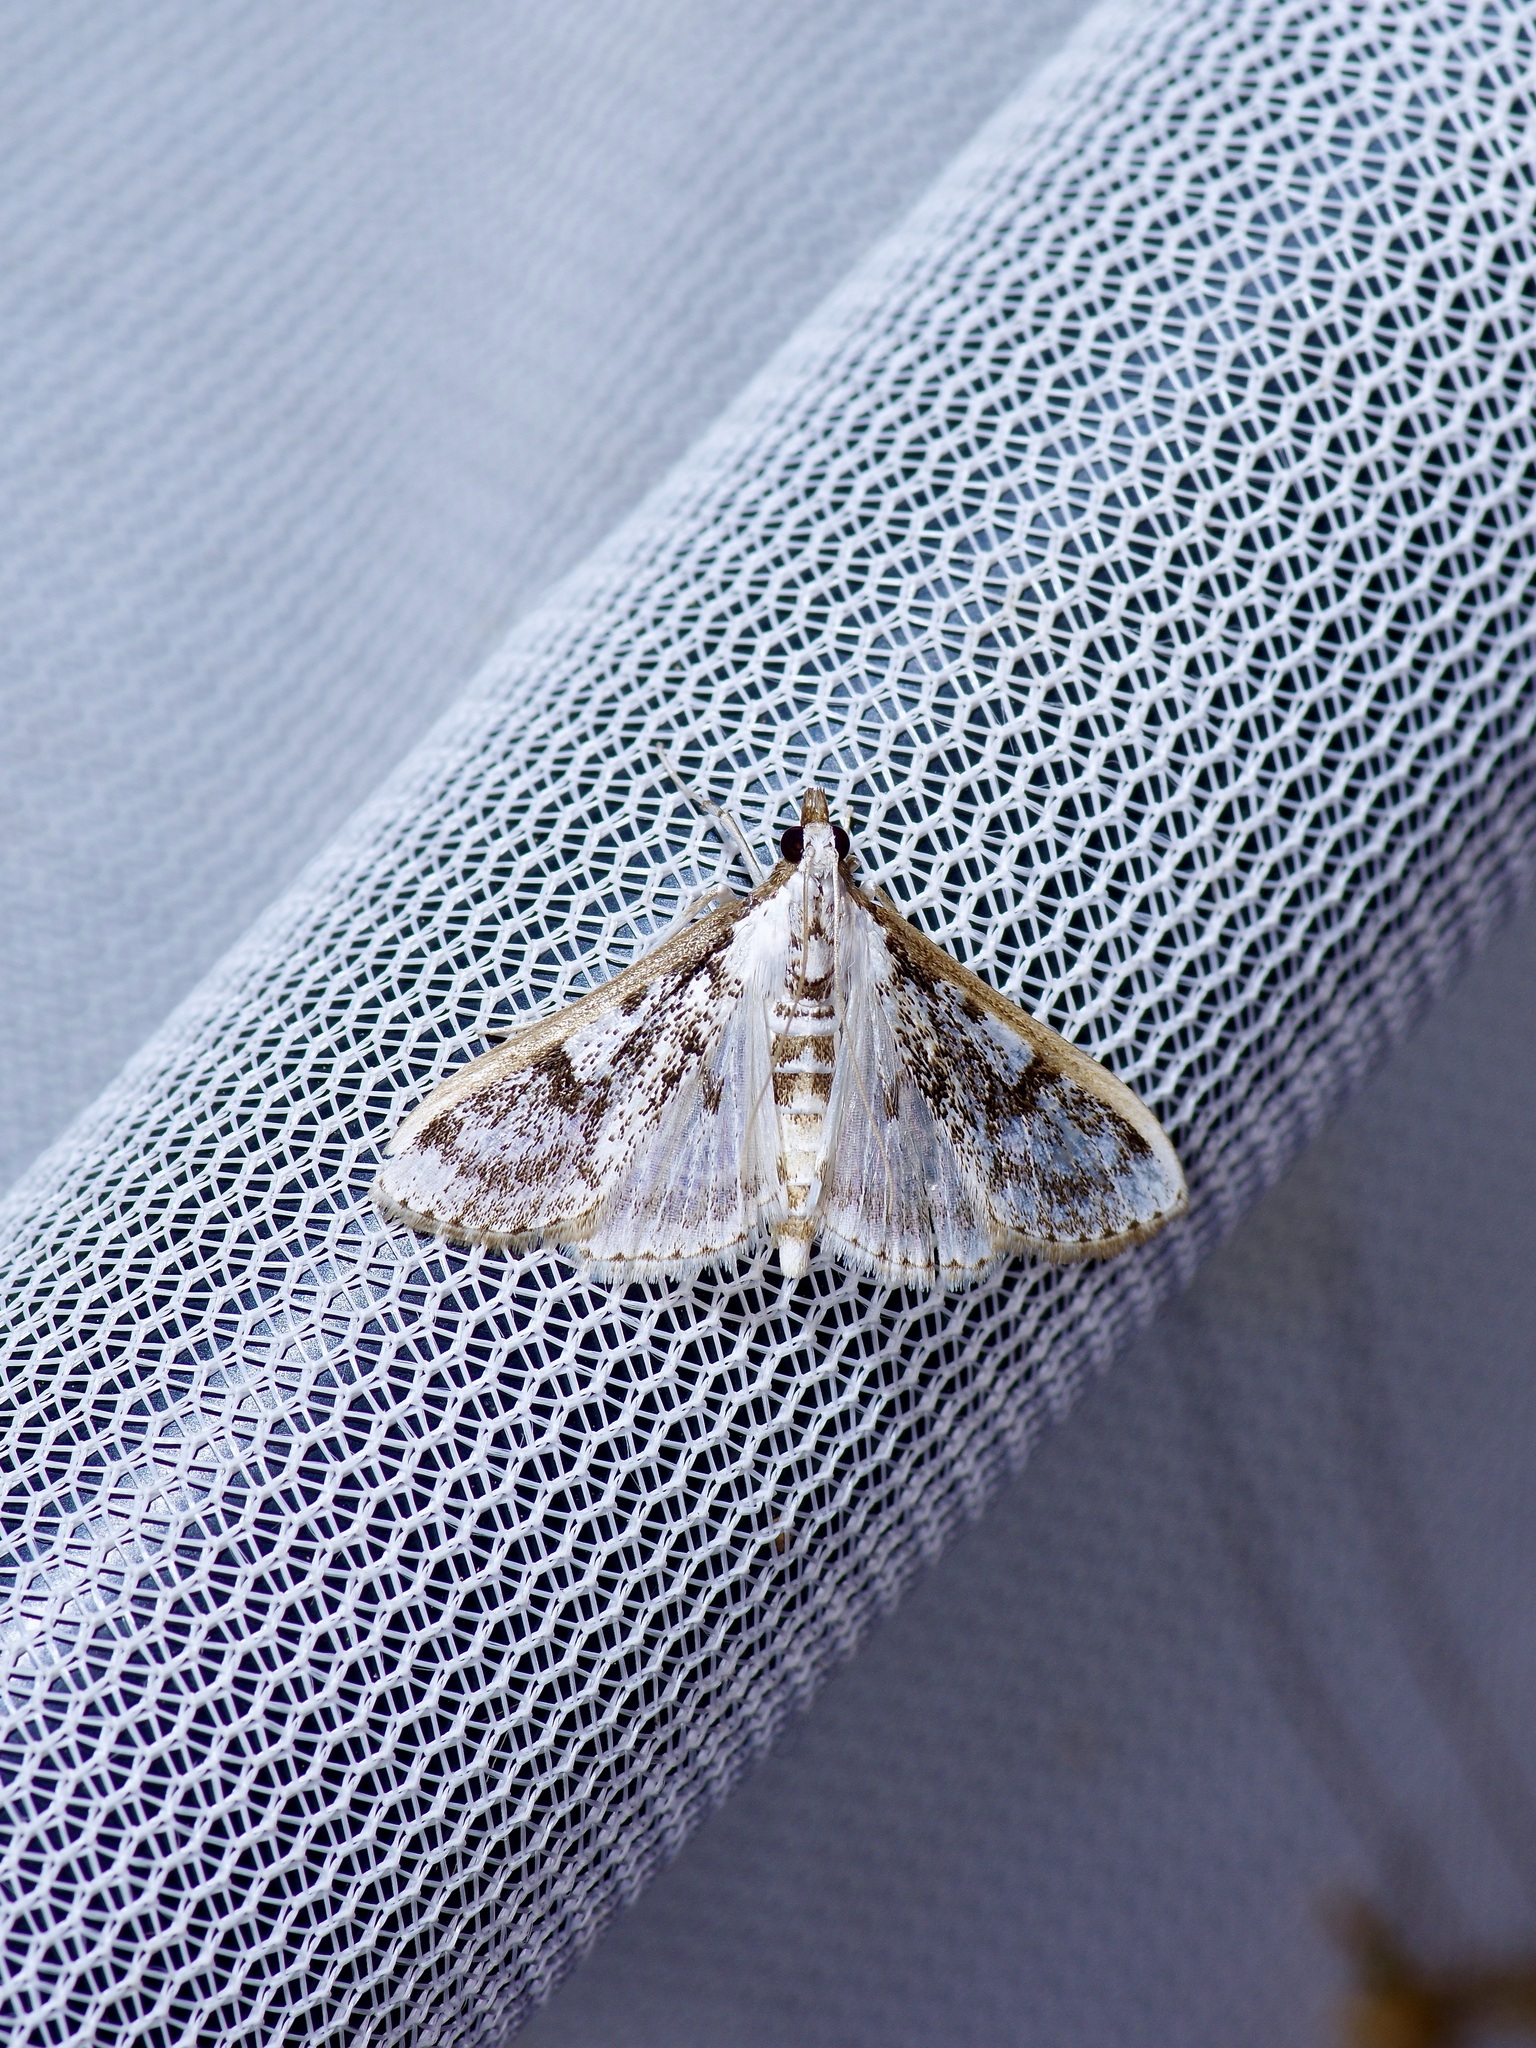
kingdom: Animalia
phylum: Arthropoda
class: Insecta
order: Lepidoptera
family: Crambidae
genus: Palpita
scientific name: Palpita gracilalis
